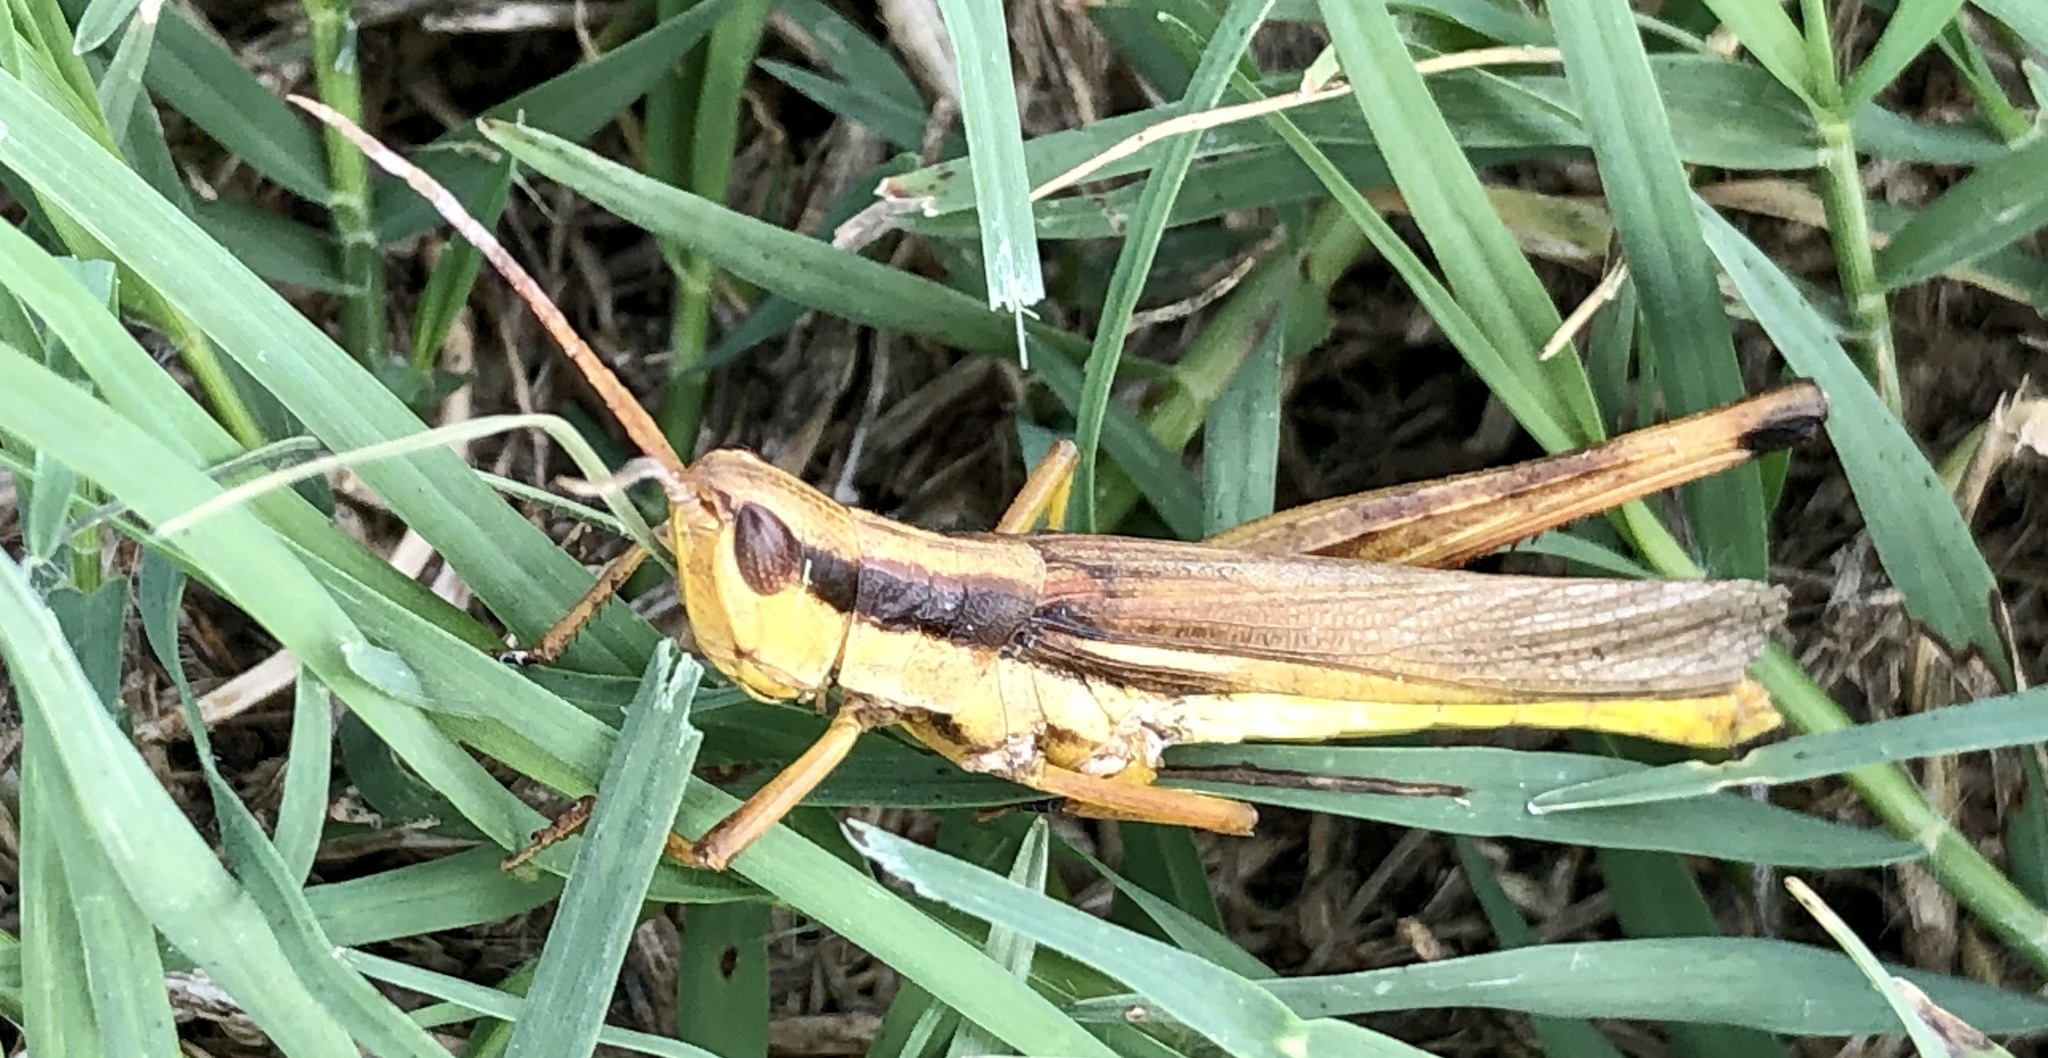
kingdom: Animalia
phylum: Arthropoda
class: Insecta
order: Orthoptera
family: Acrididae
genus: Mermiria
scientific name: Mermiria bivittata
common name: Two-striped mermiria grasshopper
